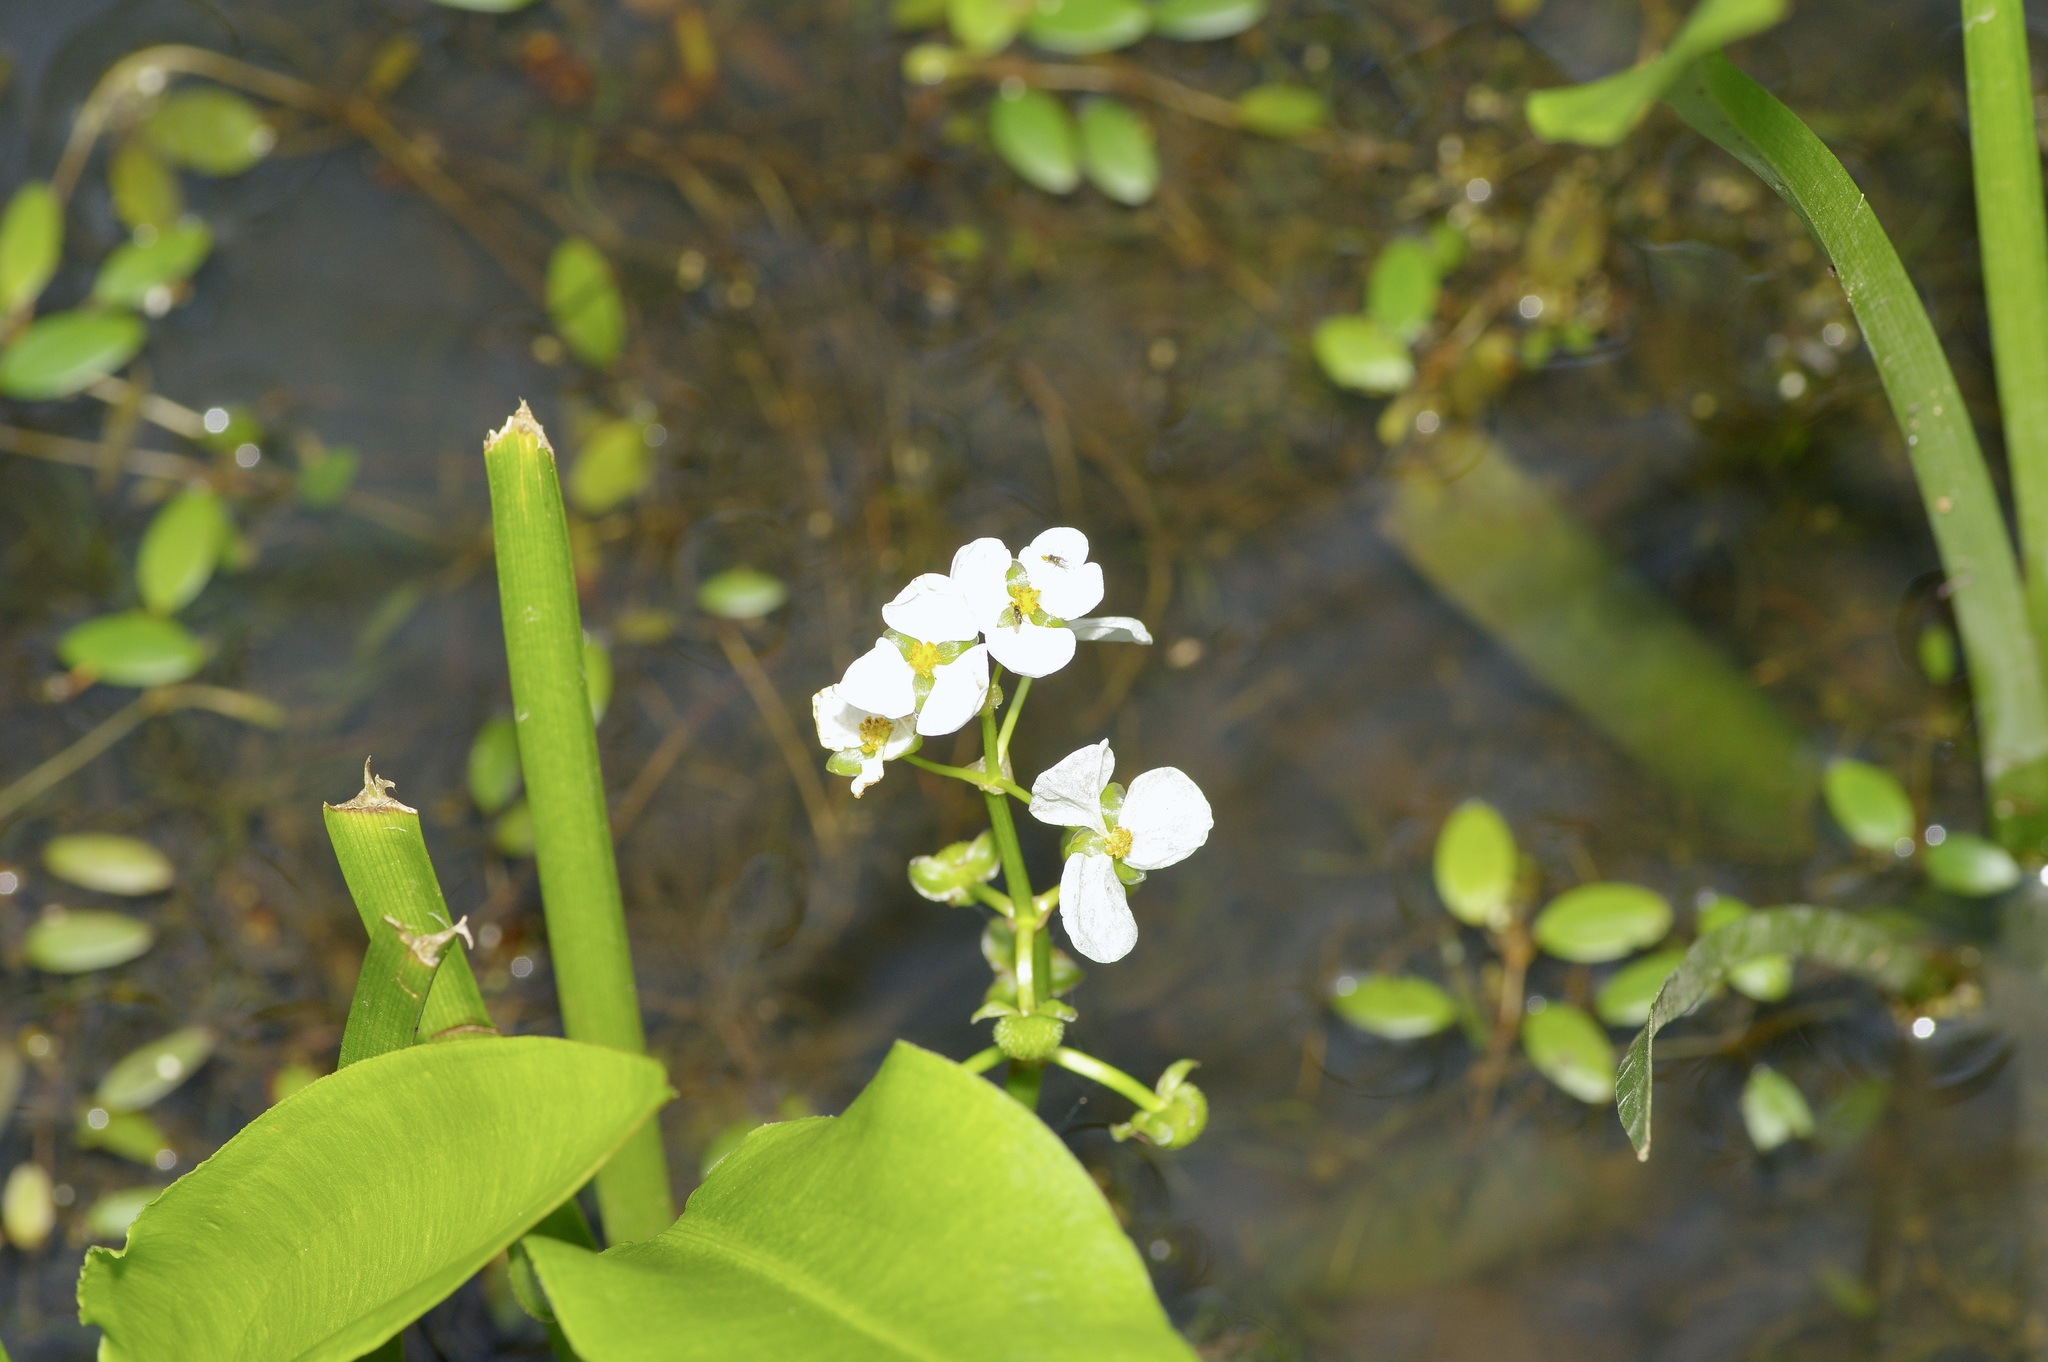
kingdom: Plantae
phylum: Tracheophyta
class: Liliopsida
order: Alismatales
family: Alismataceae
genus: Sagittaria
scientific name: Sagittaria platyphylla
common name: Broad-leaf arrowhead
